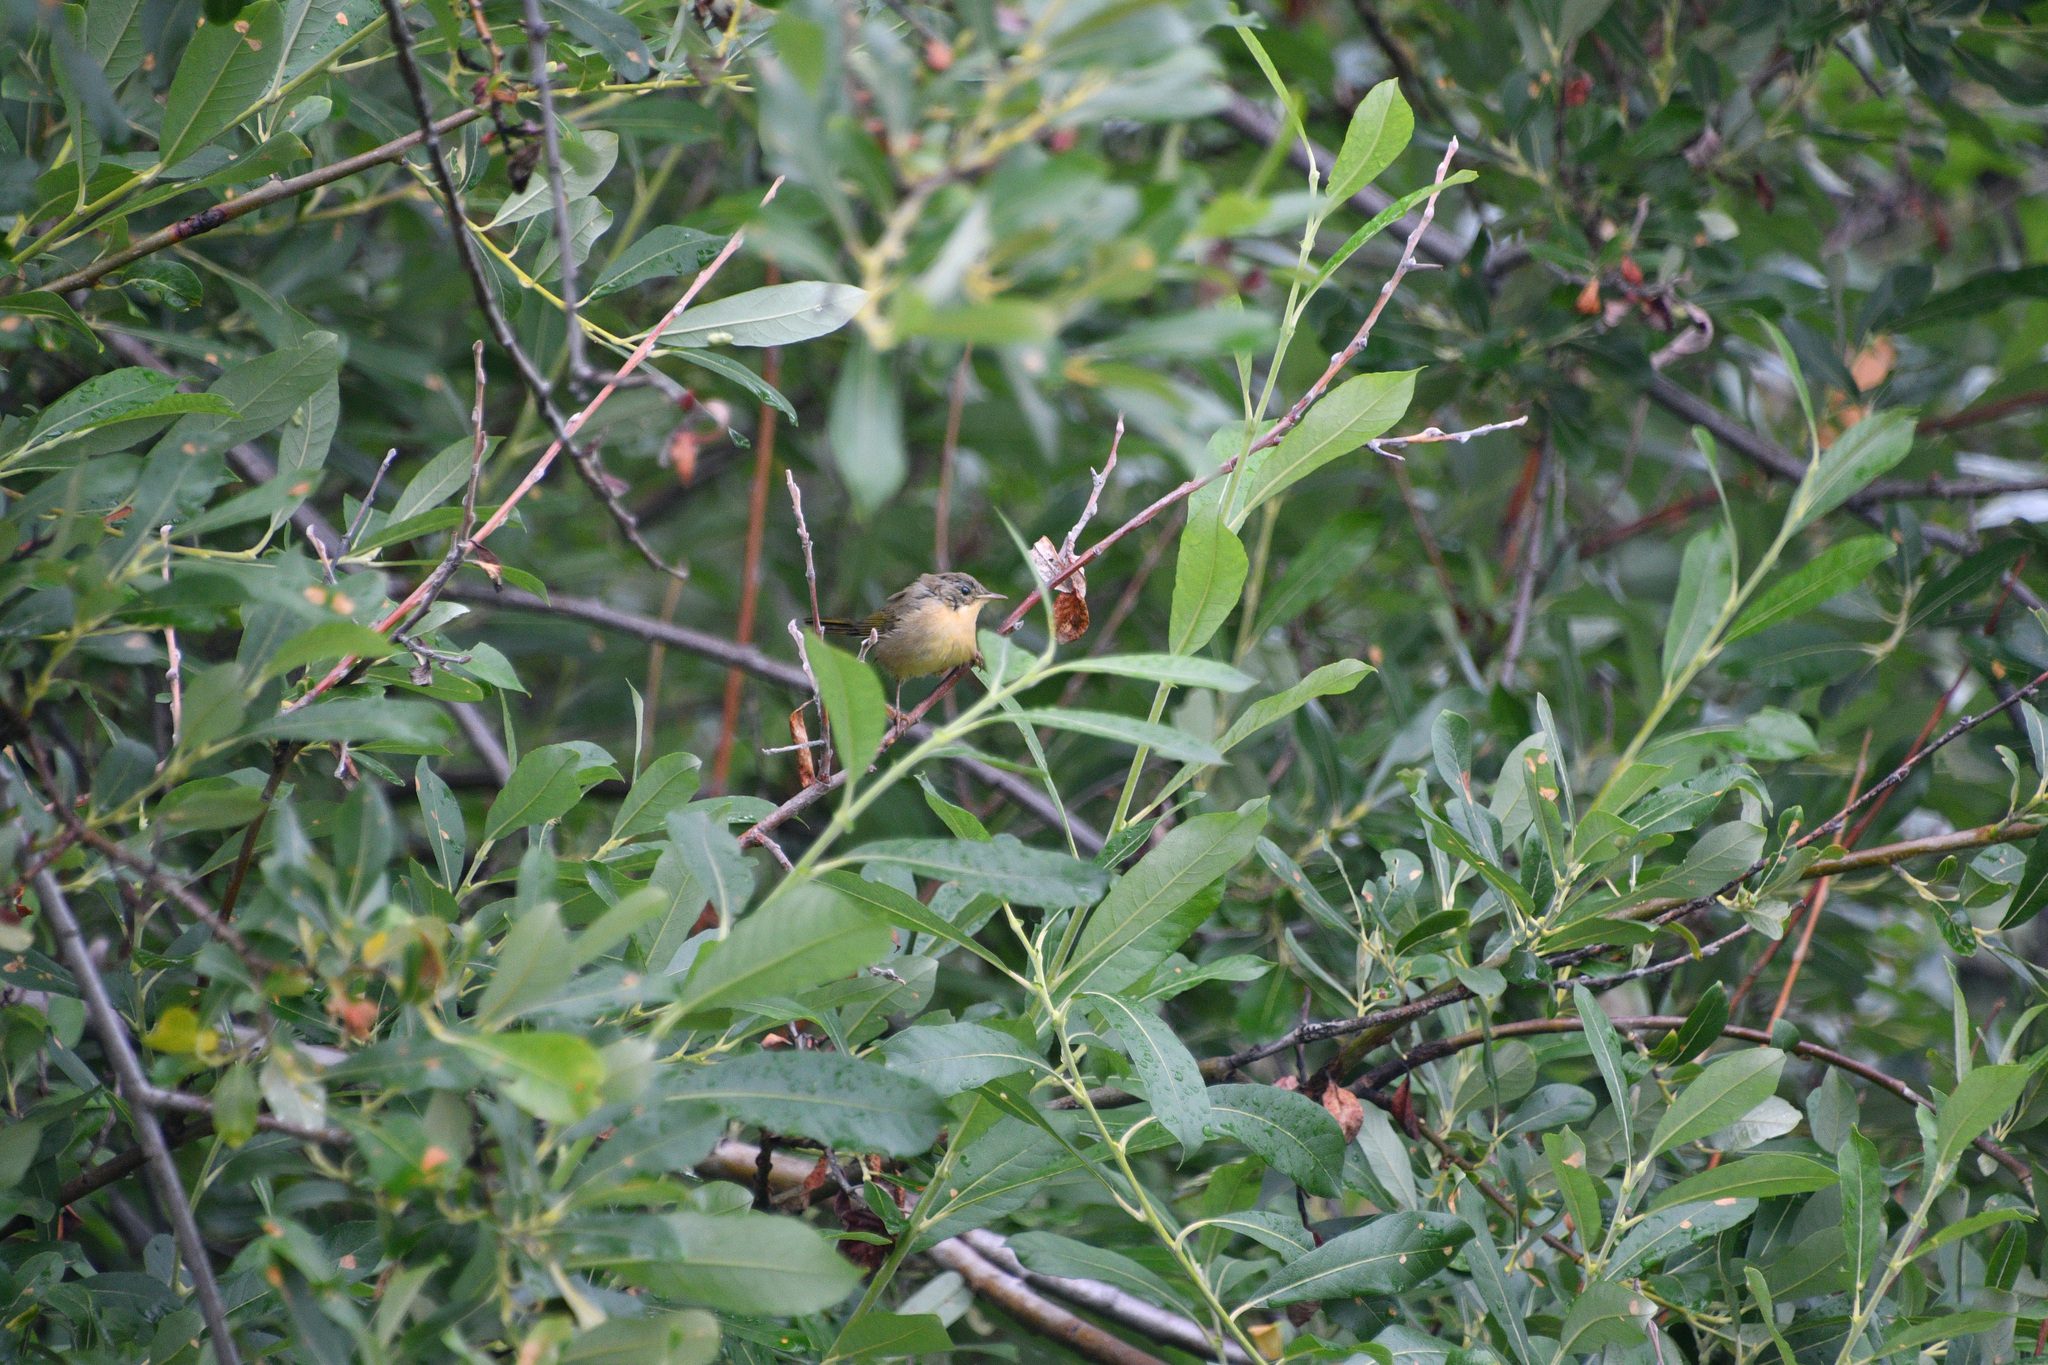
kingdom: Animalia
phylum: Chordata
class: Aves
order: Passeriformes
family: Parulidae
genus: Geothlypis
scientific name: Geothlypis trichas
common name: Common yellowthroat
